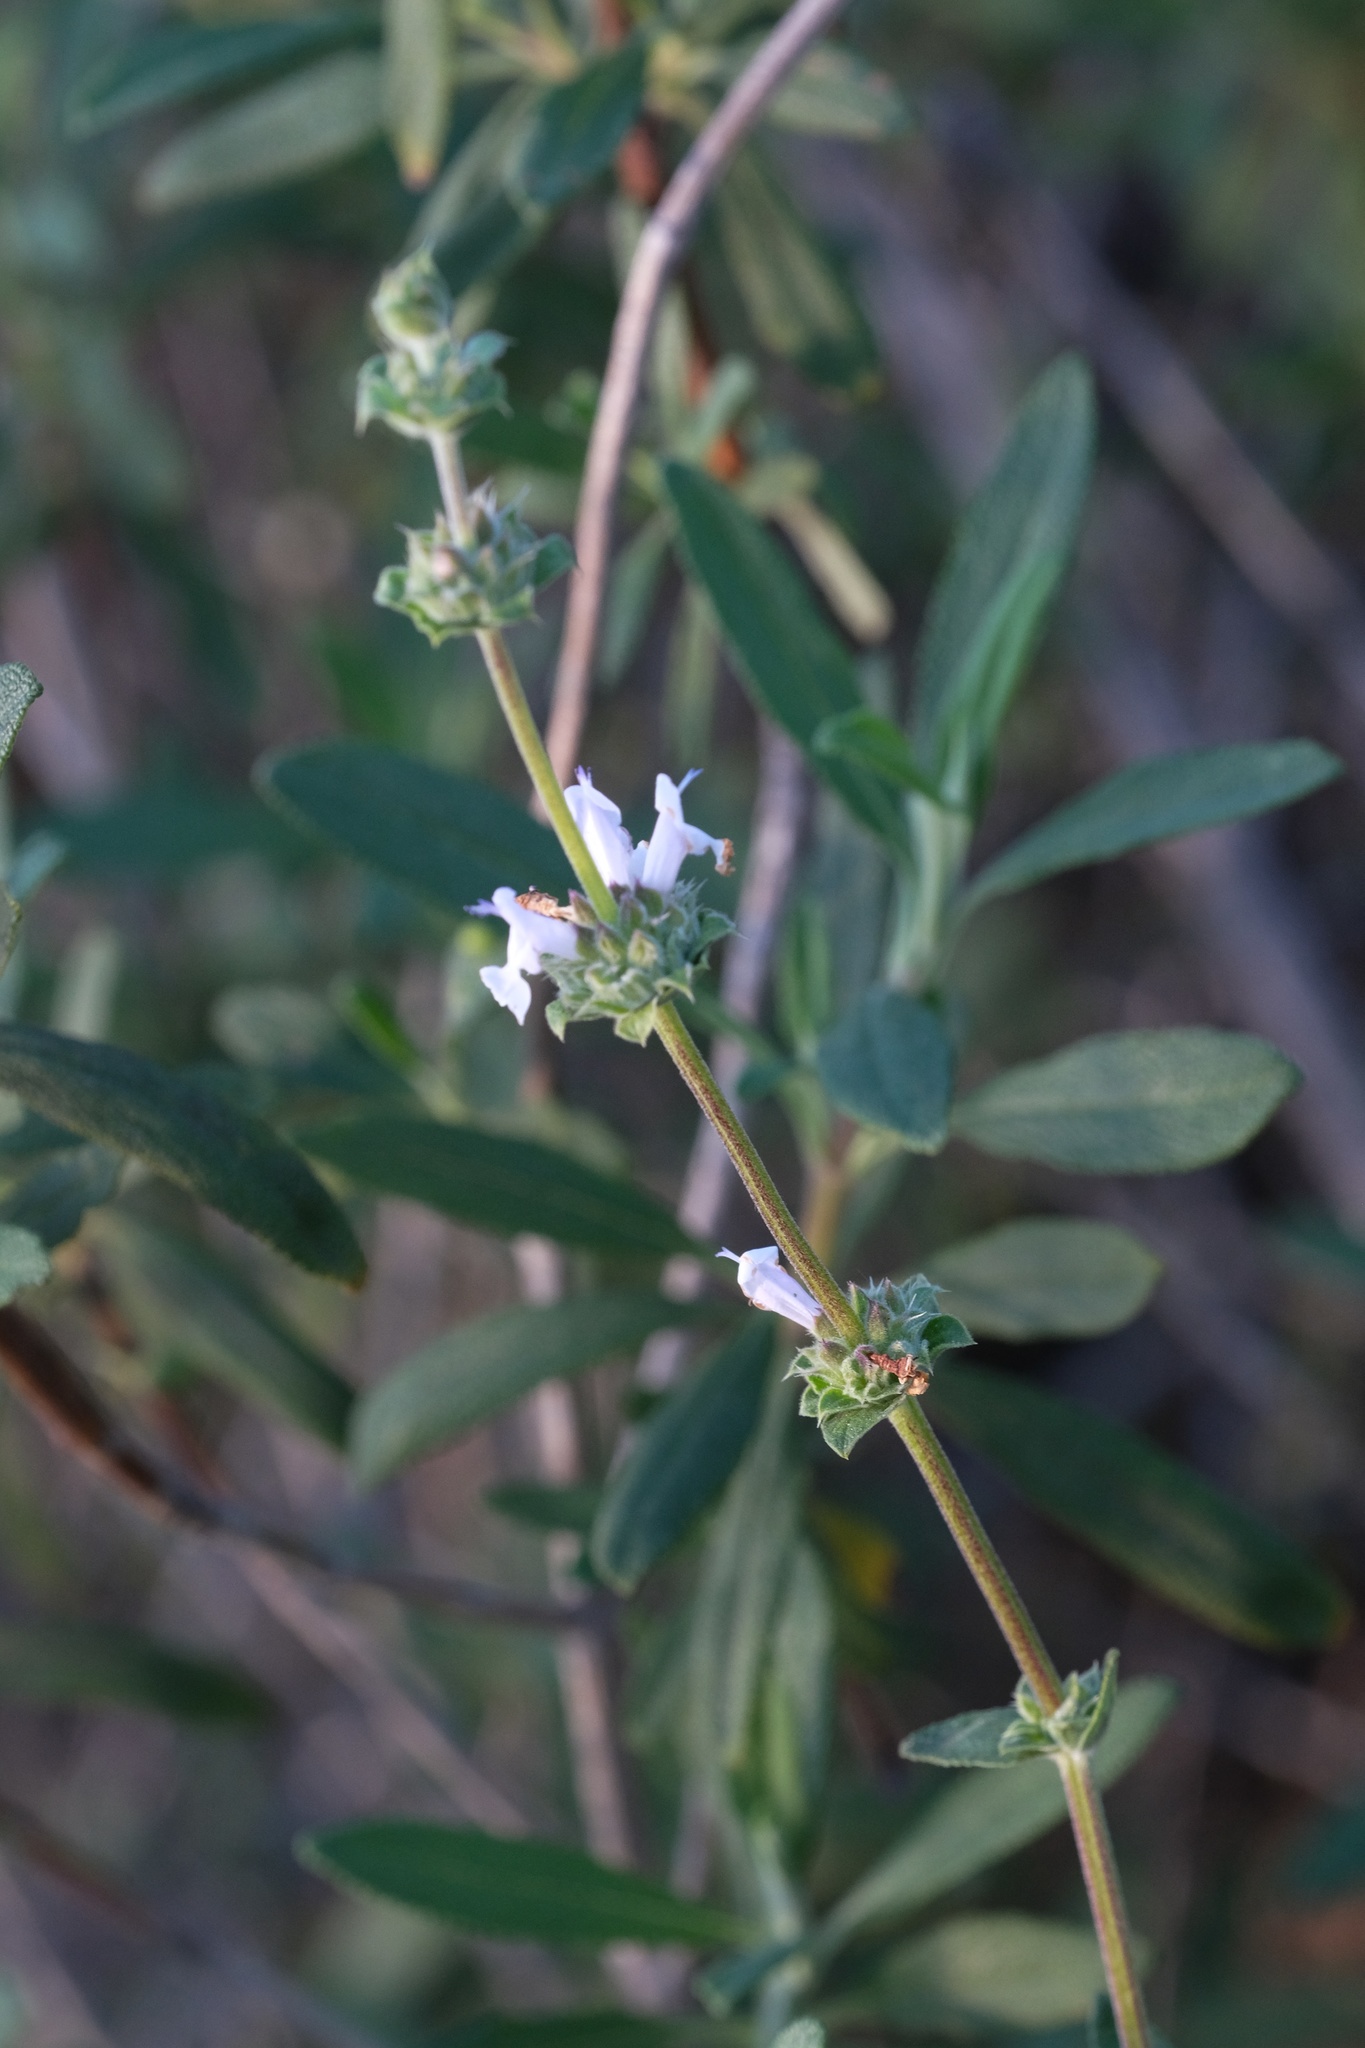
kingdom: Plantae
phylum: Tracheophyta
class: Magnoliopsida
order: Lamiales
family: Lamiaceae
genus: Salvia
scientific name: Salvia mellifera
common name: Black sage
